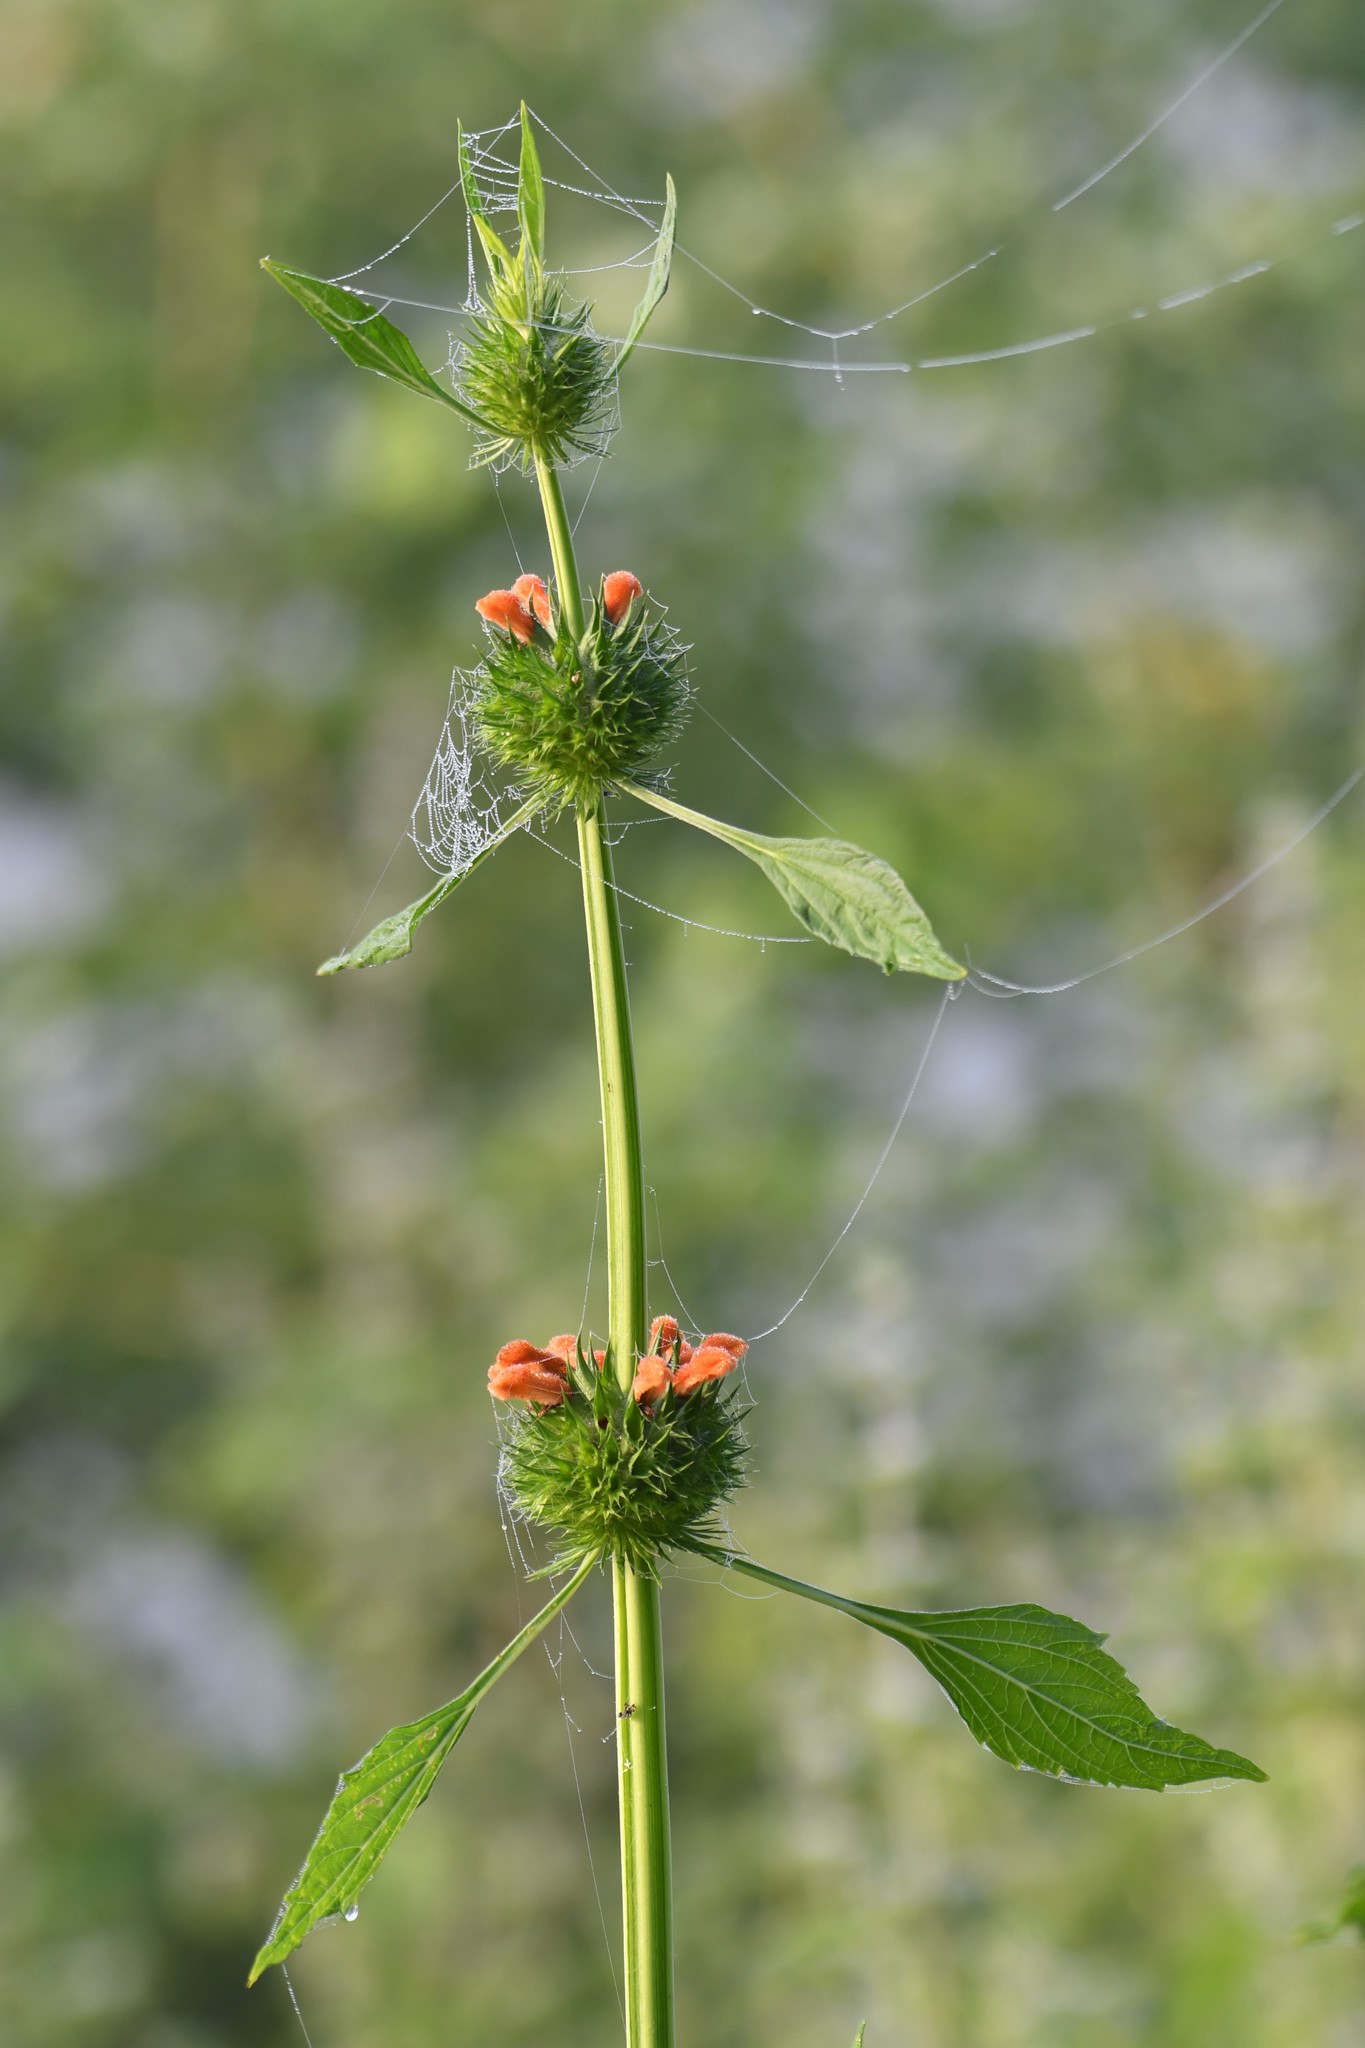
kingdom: Plantae
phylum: Tracheophyta
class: Magnoliopsida
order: Lamiales
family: Lamiaceae
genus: Leonotis
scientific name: Leonotis nepetifolia
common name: Christmas candlestick
